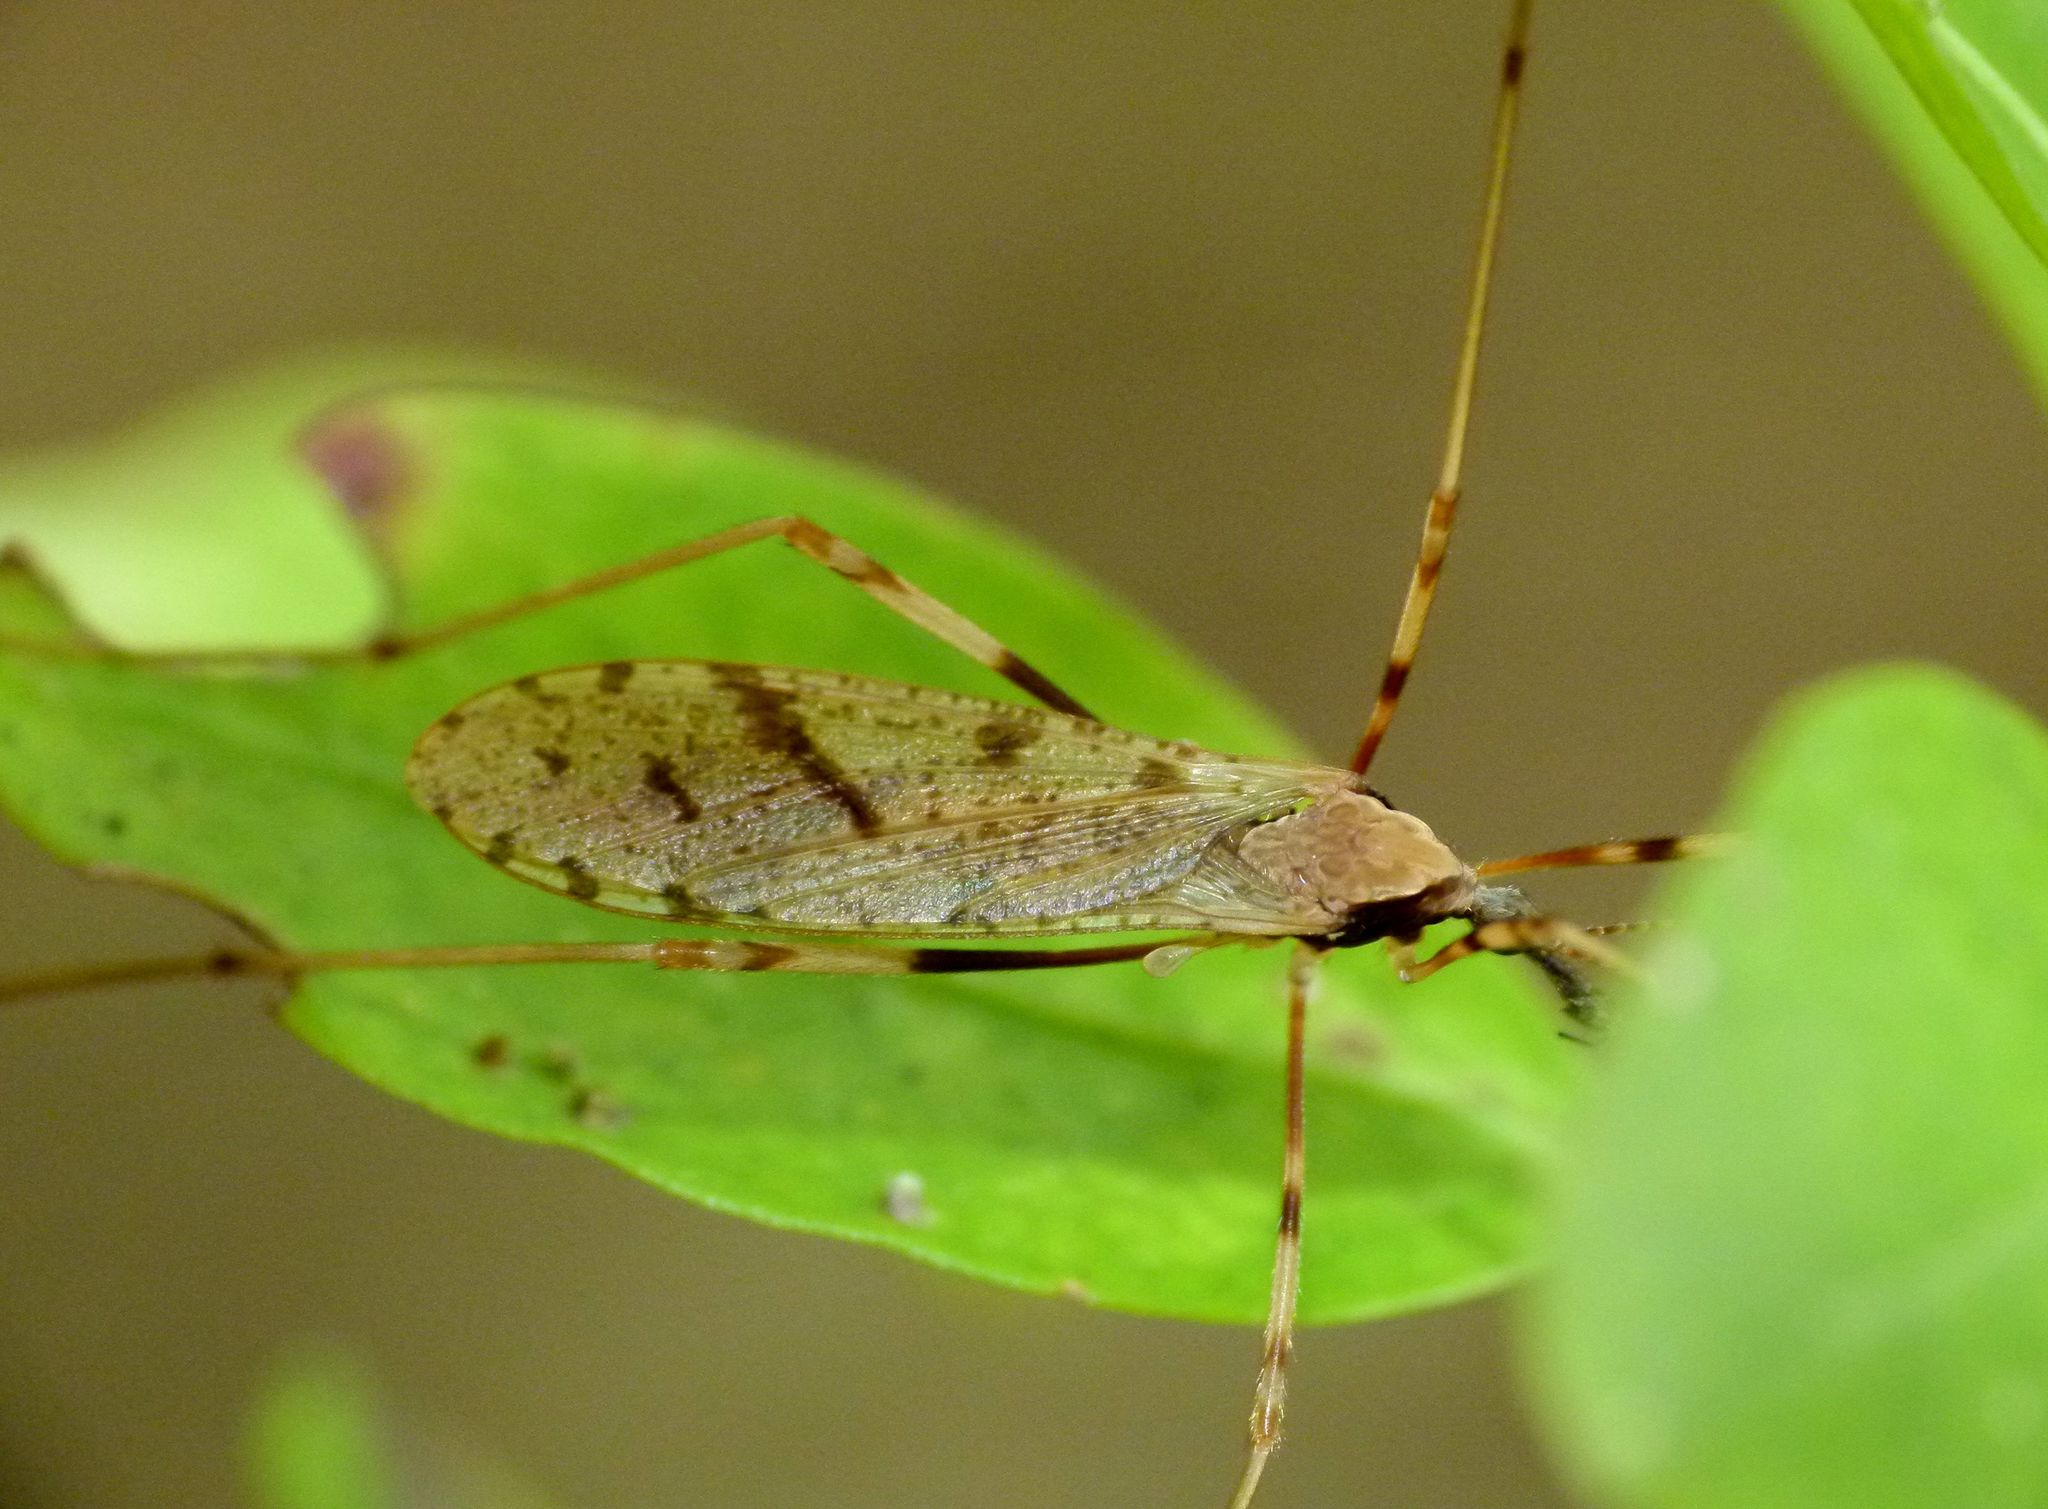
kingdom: Animalia
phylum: Arthropoda
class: Insecta
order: Diptera
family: Limoniidae
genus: Rhamphophila
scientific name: Rhamphophila sinistra
